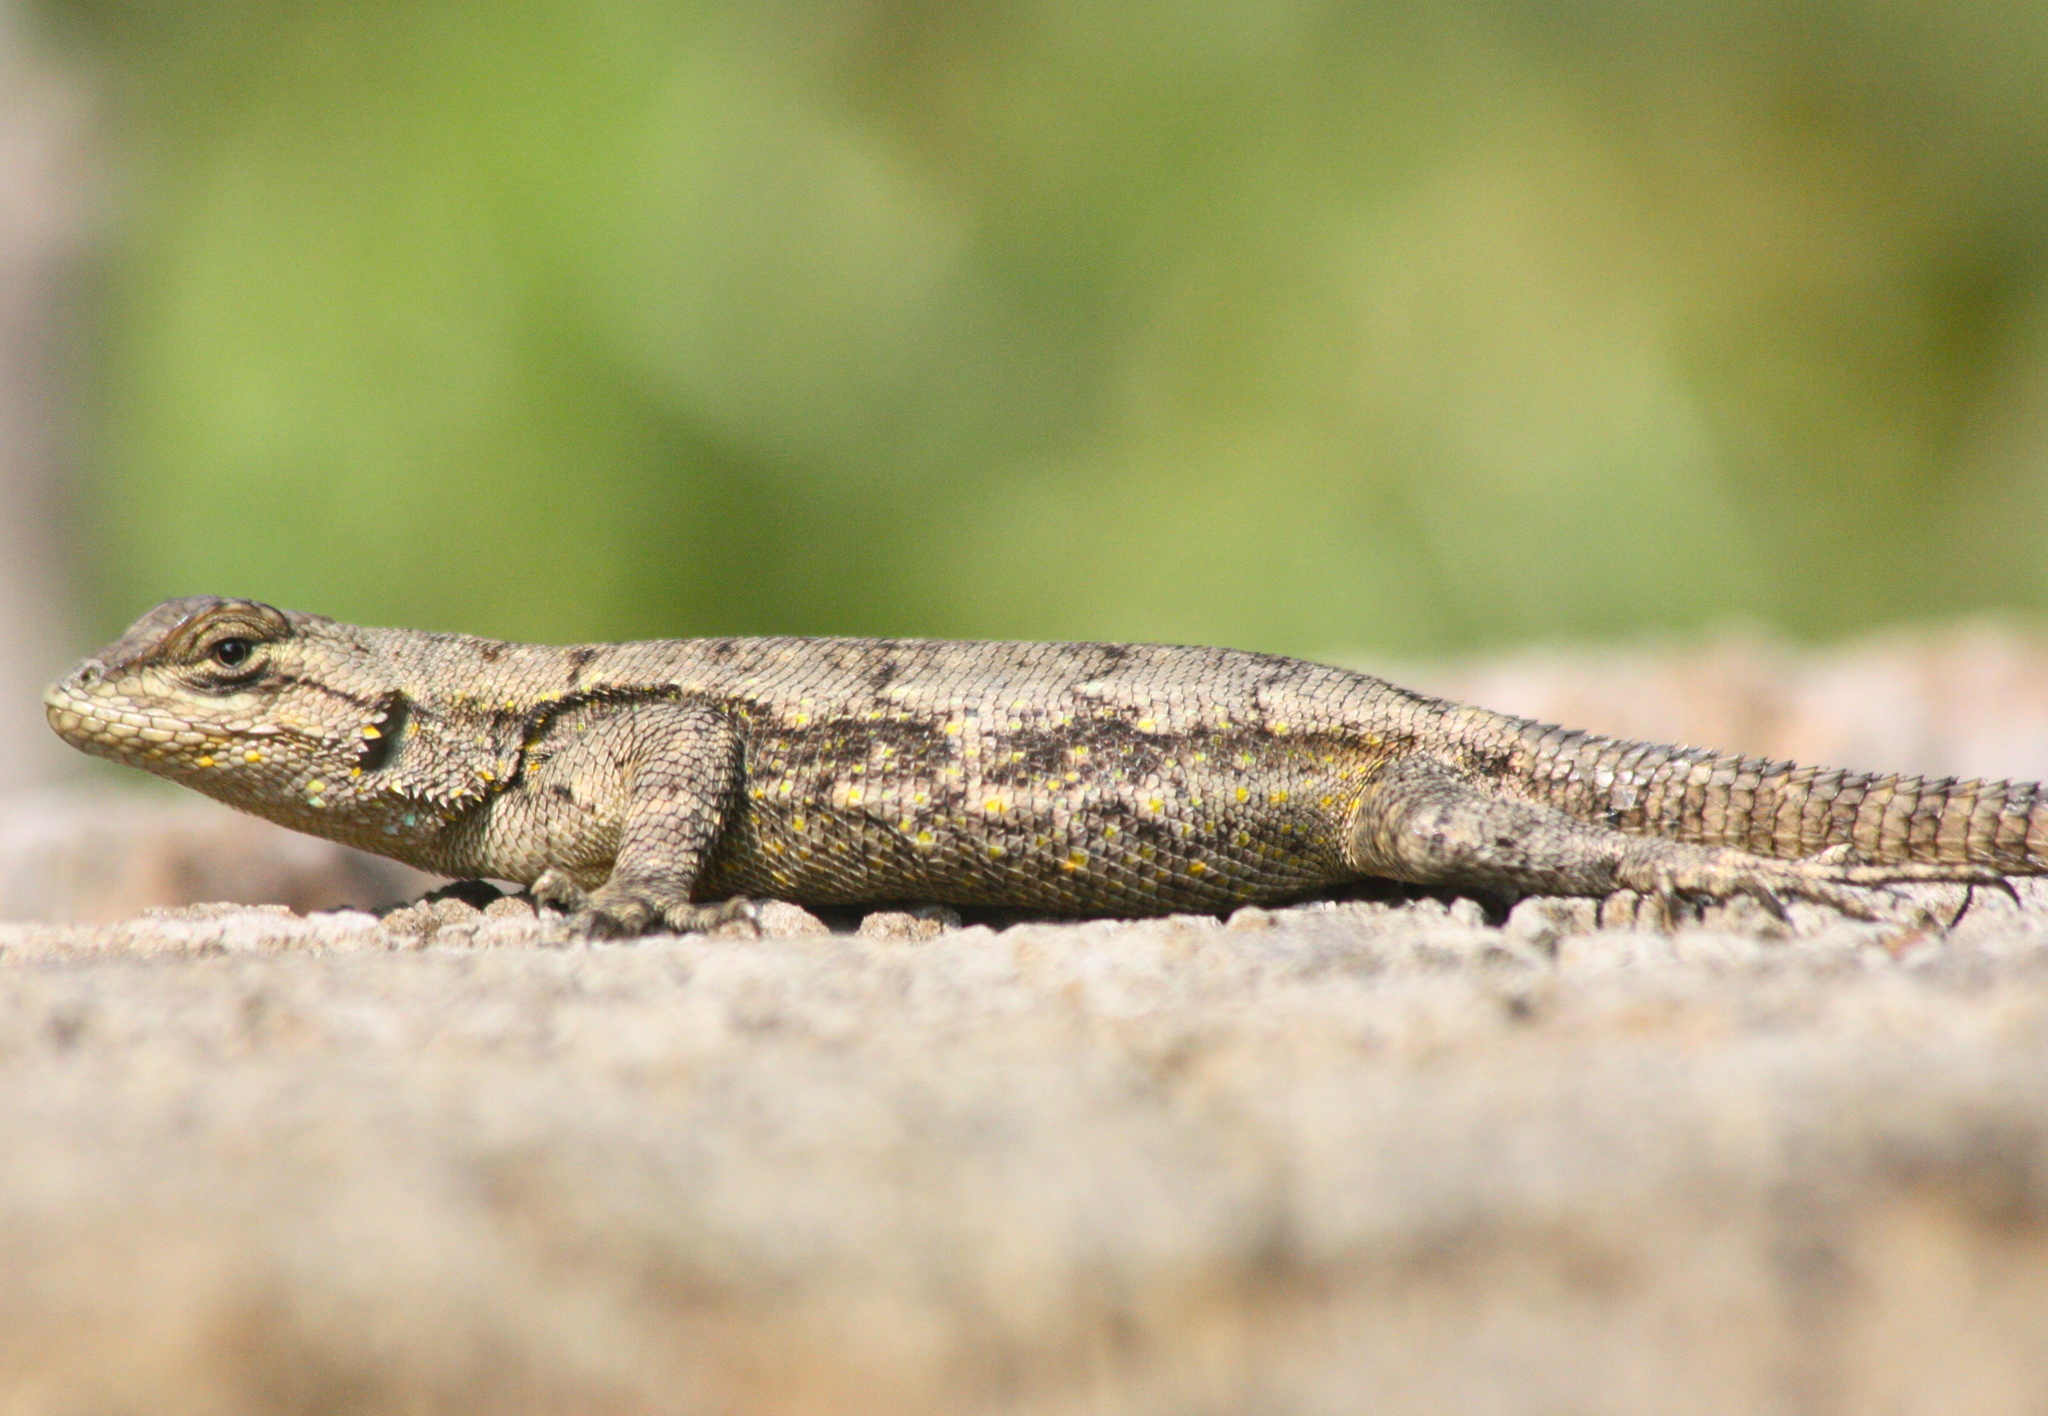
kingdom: Animalia
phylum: Chordata
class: Squamata
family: Phrynosomatidae
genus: Sceloporus
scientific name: Sceloporus grammicus
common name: Mesquite lizard
